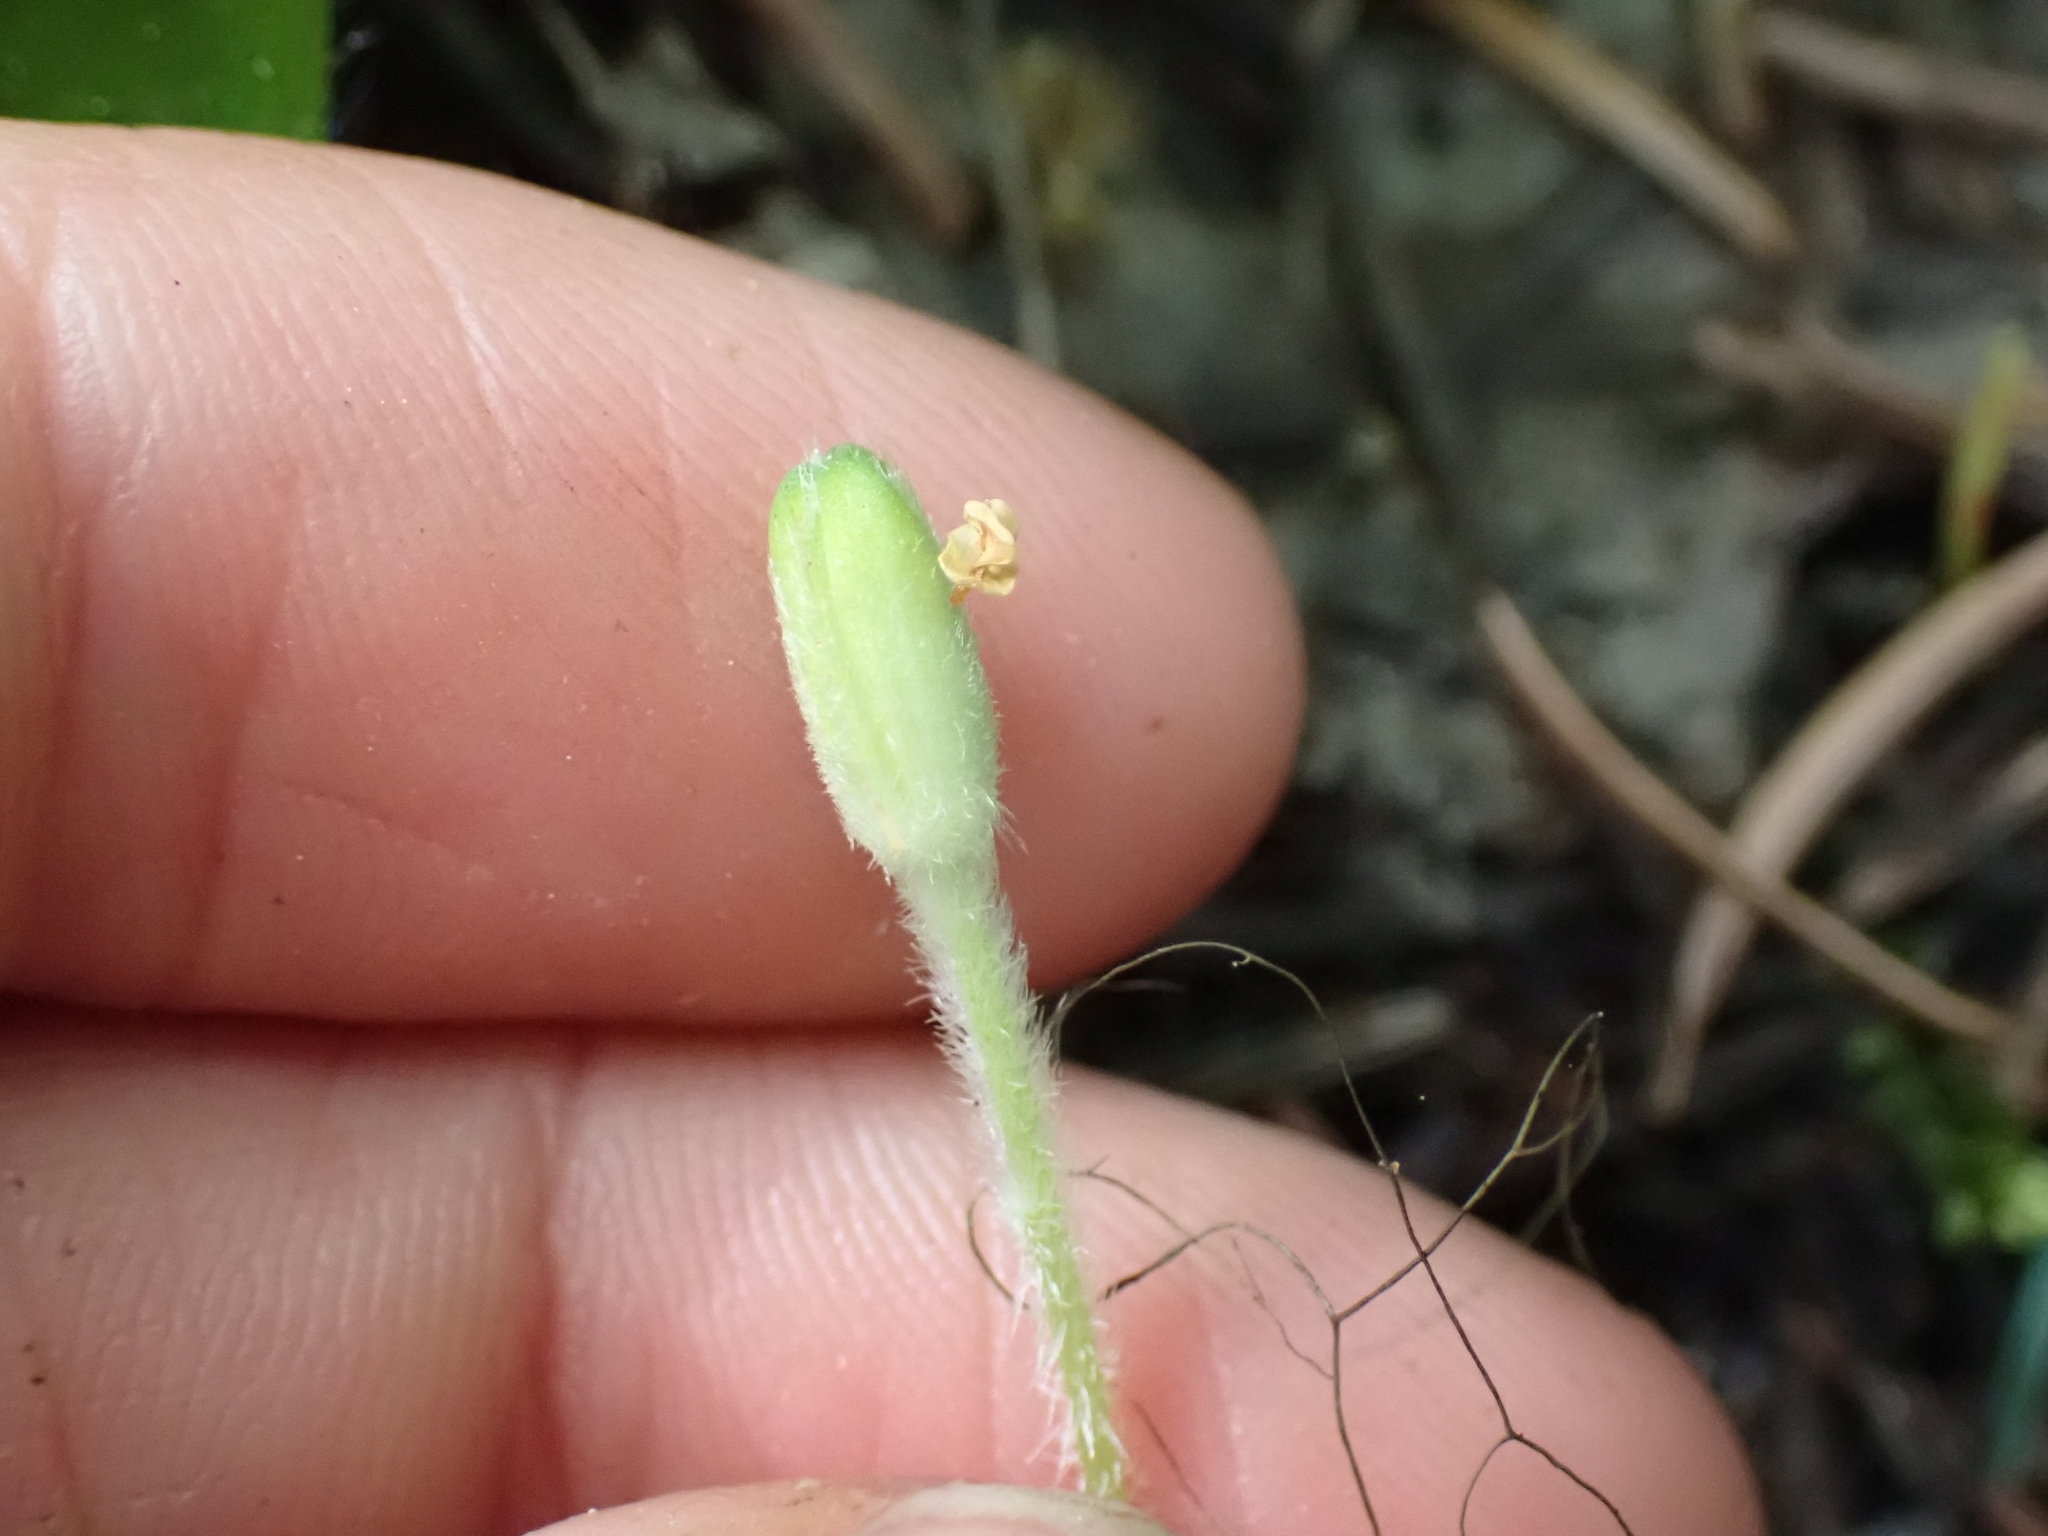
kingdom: Plantae
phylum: Tracheophyta
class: Liliopsida
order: Liliales
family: Liliaceae
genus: Clintonia
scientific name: Clintonia uniflora
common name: Queen's cup
